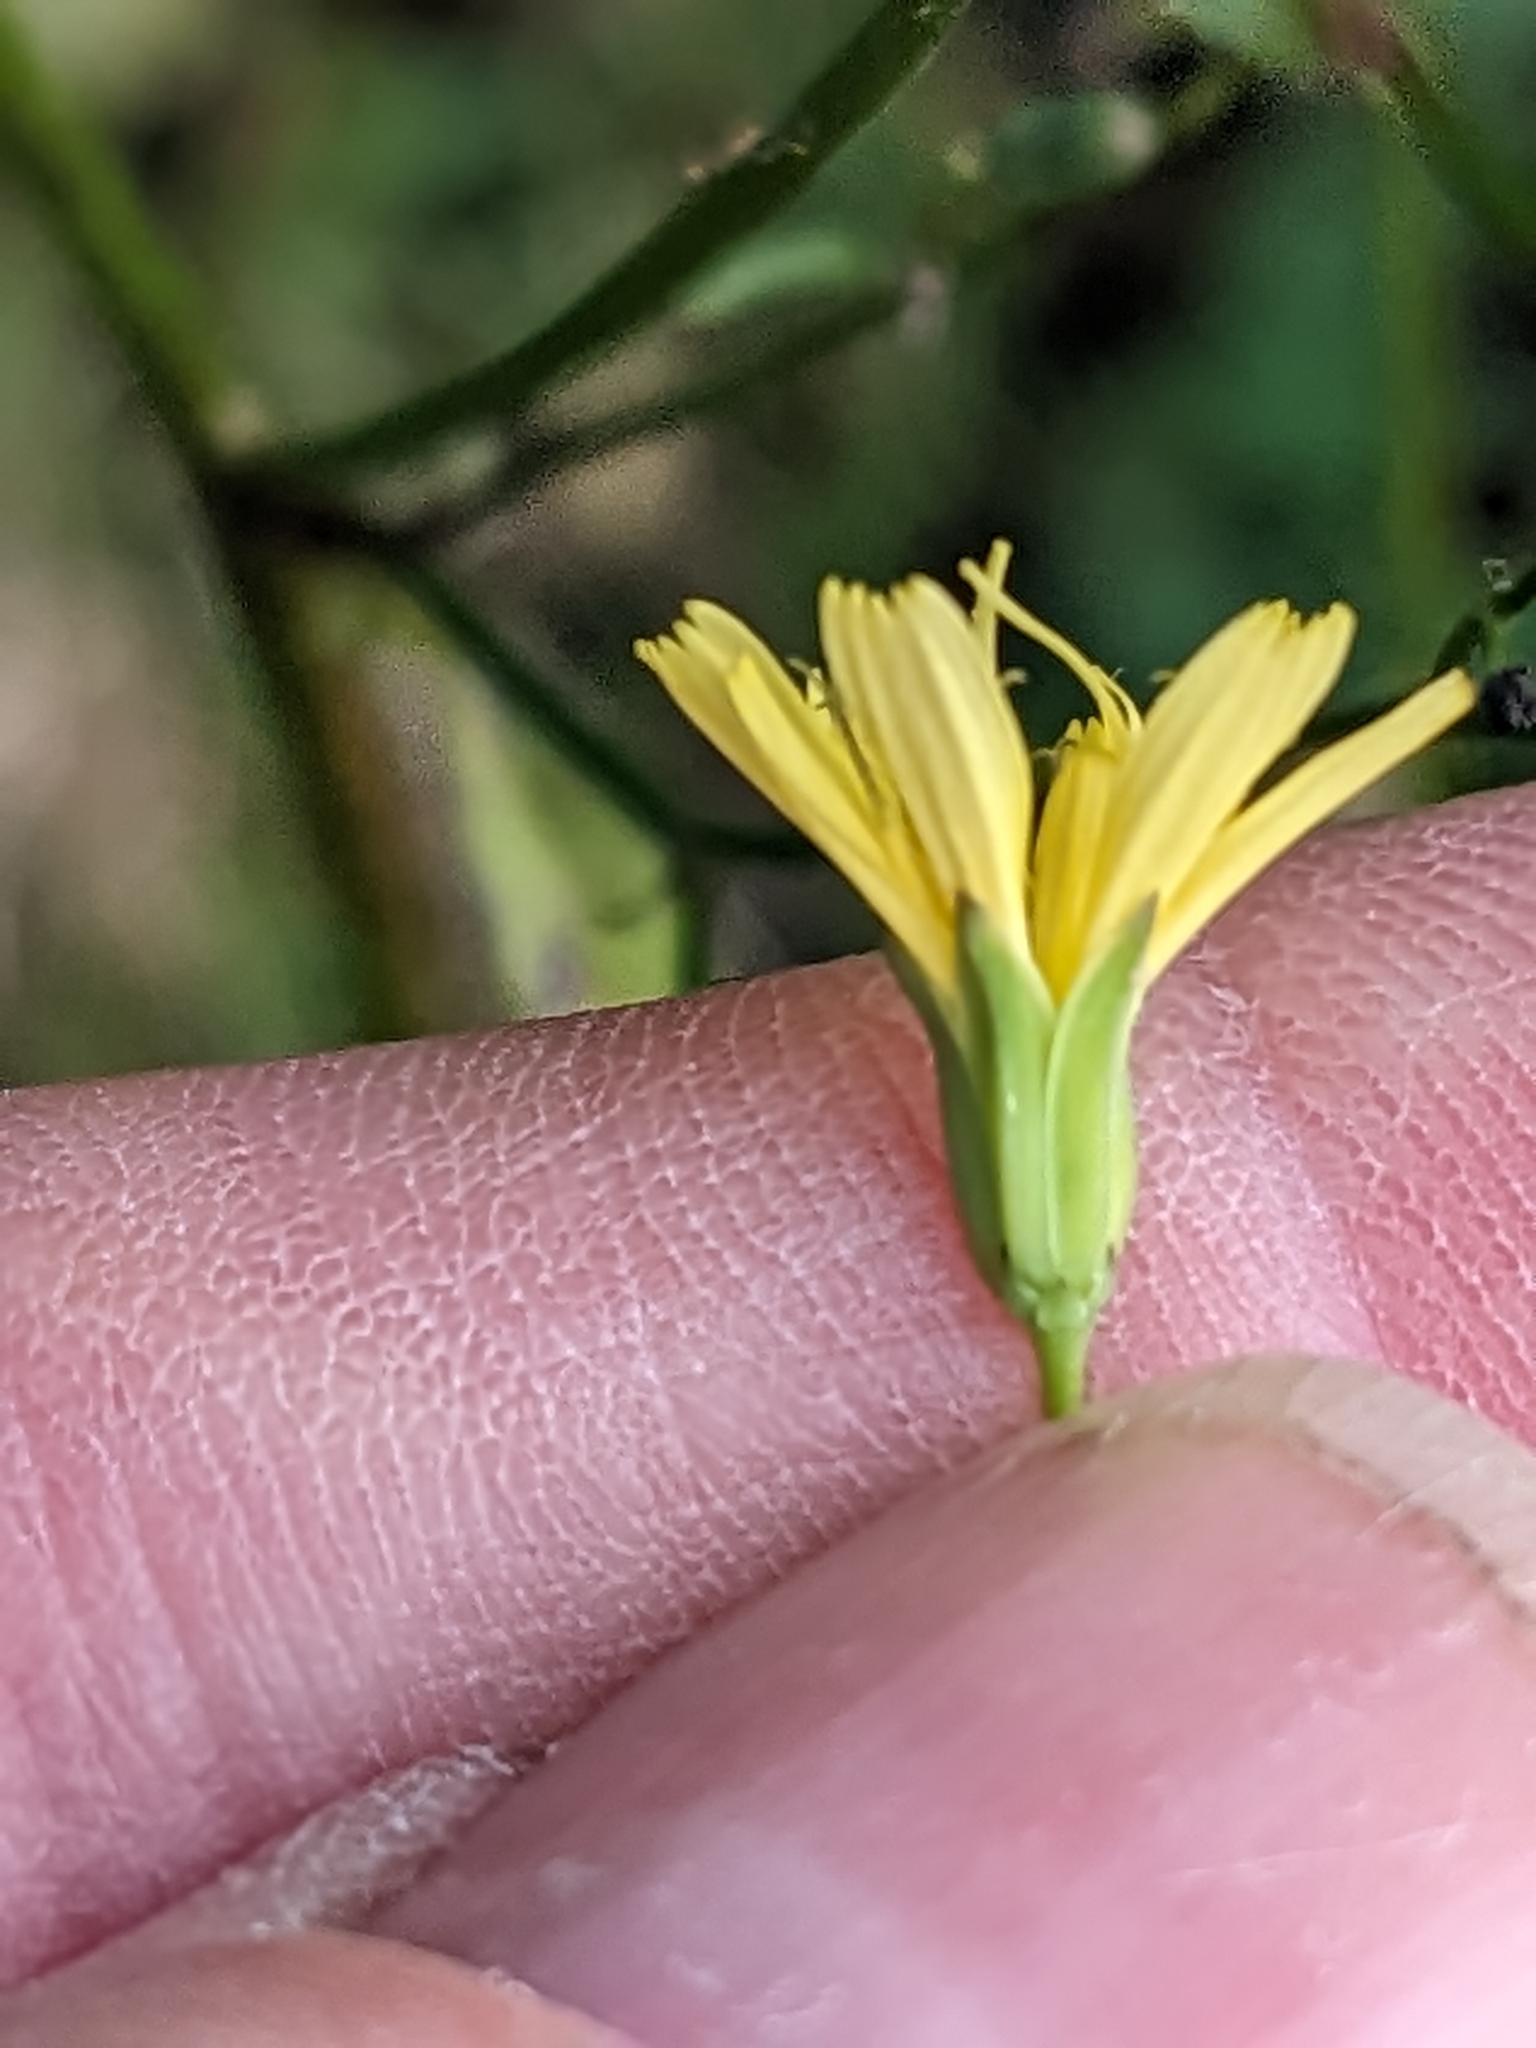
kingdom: Plantae
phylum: Tracheophyta
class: Magnoliopsida
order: Asterales
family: Asteraceae
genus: Lapsana
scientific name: Lapsana communis
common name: Nipplewort
